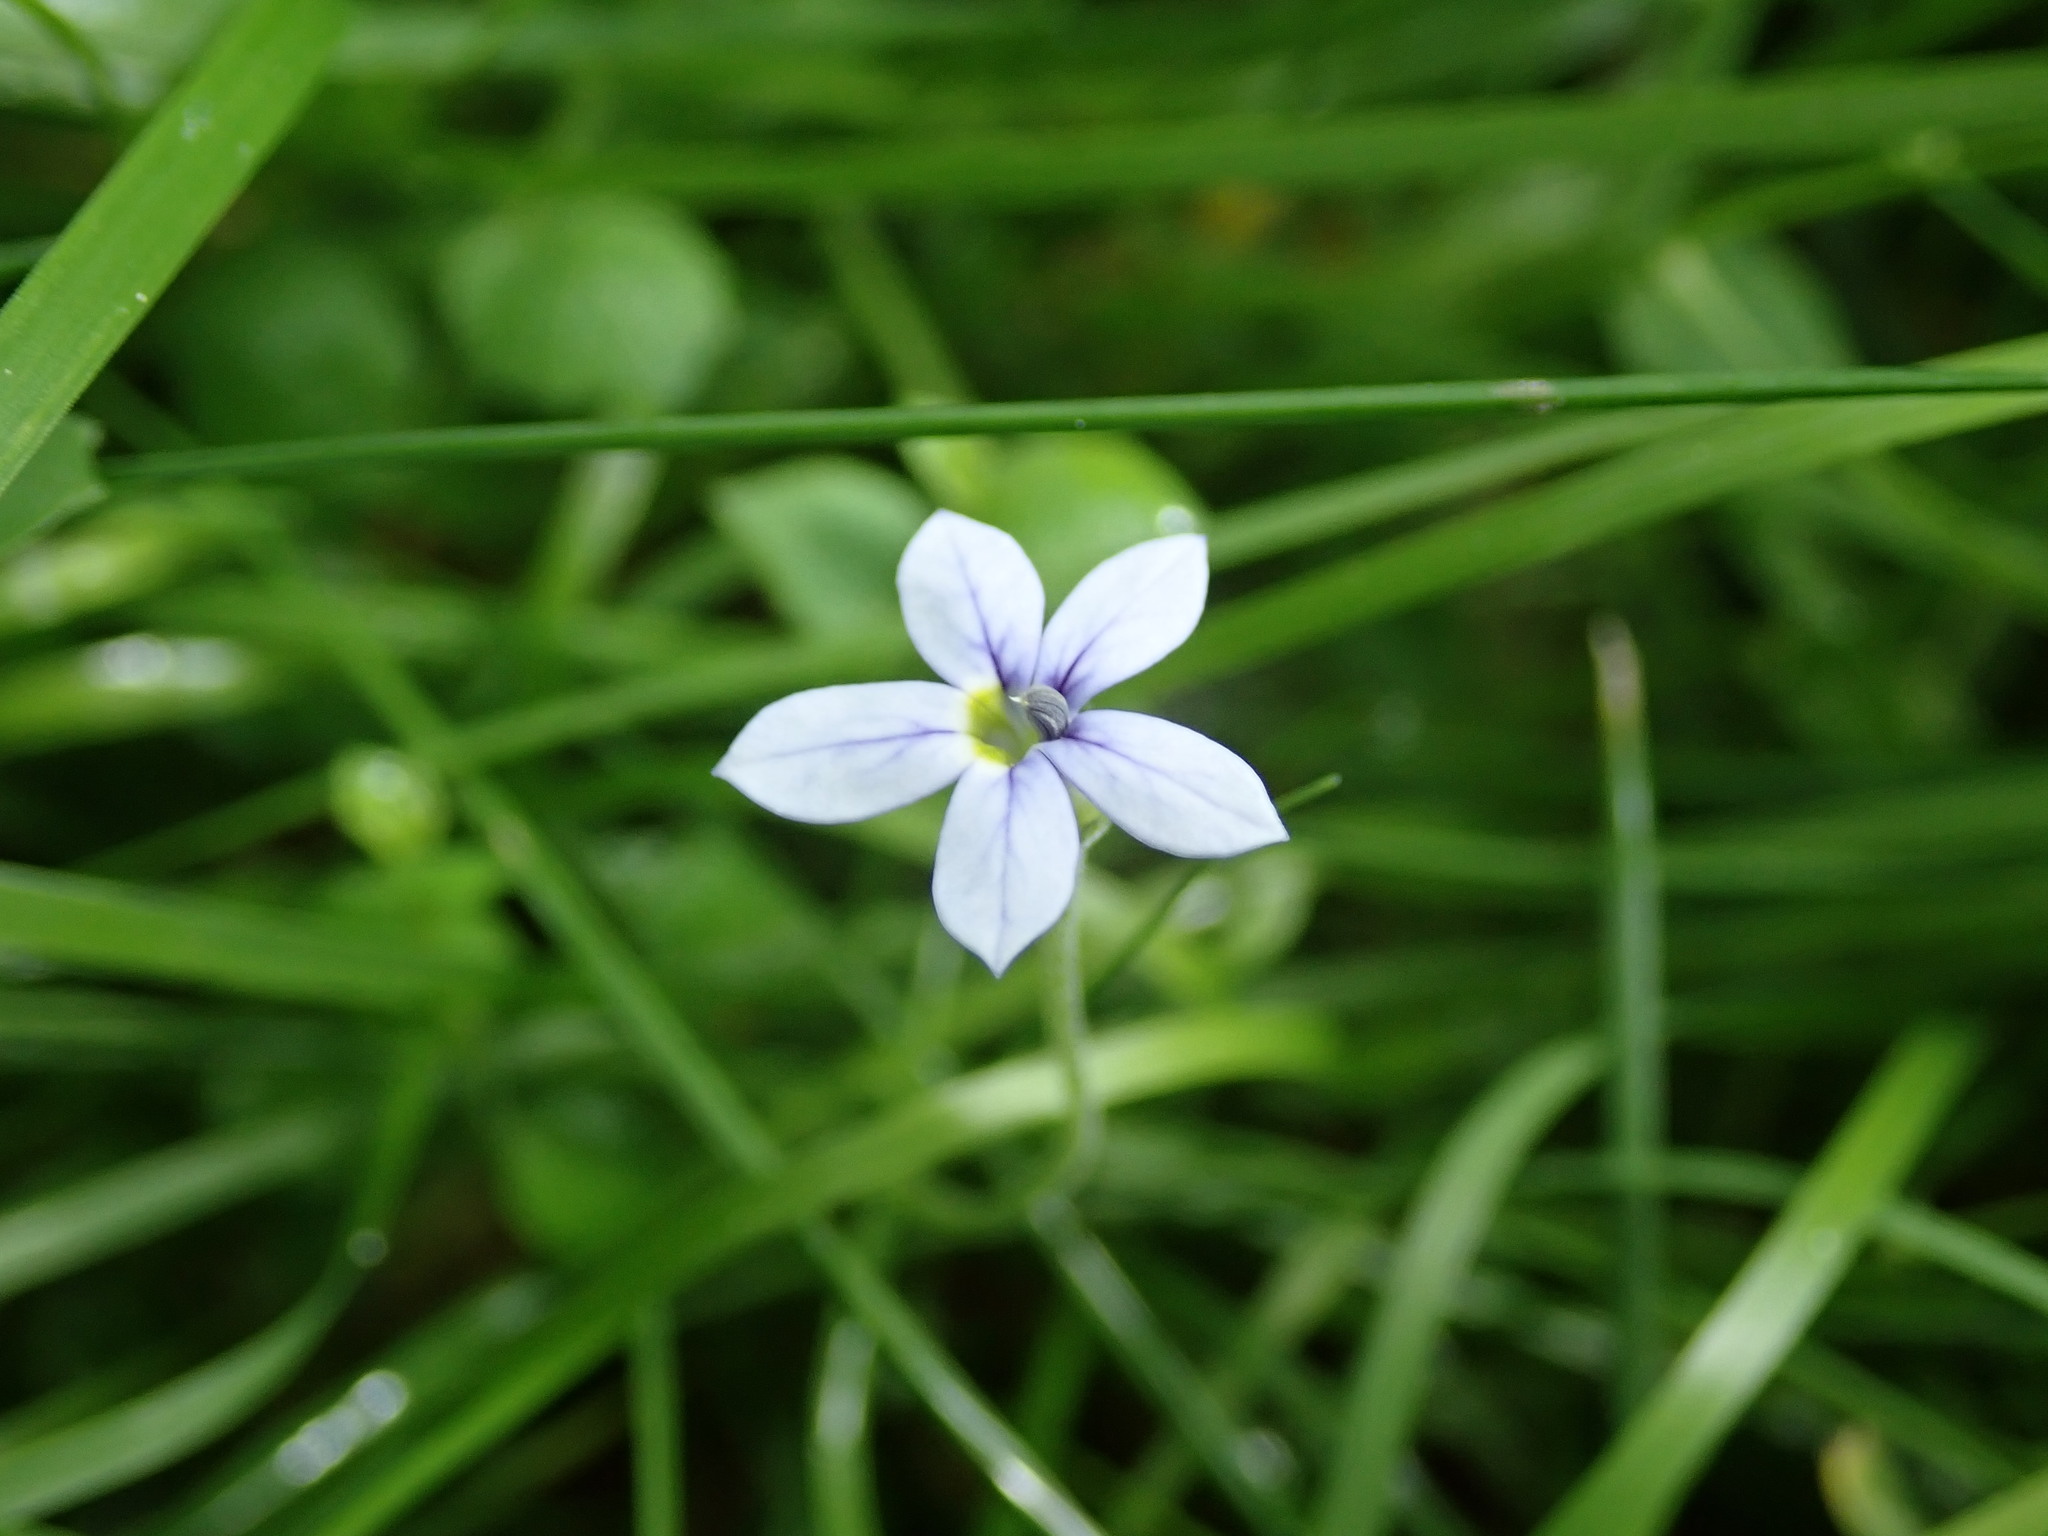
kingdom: Plantae
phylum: Tracheophyta
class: Magnoliopsida
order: Asterales
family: Campanulaceae
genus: Lobelia
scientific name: Lobelia pedunculata
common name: Matted pratia
